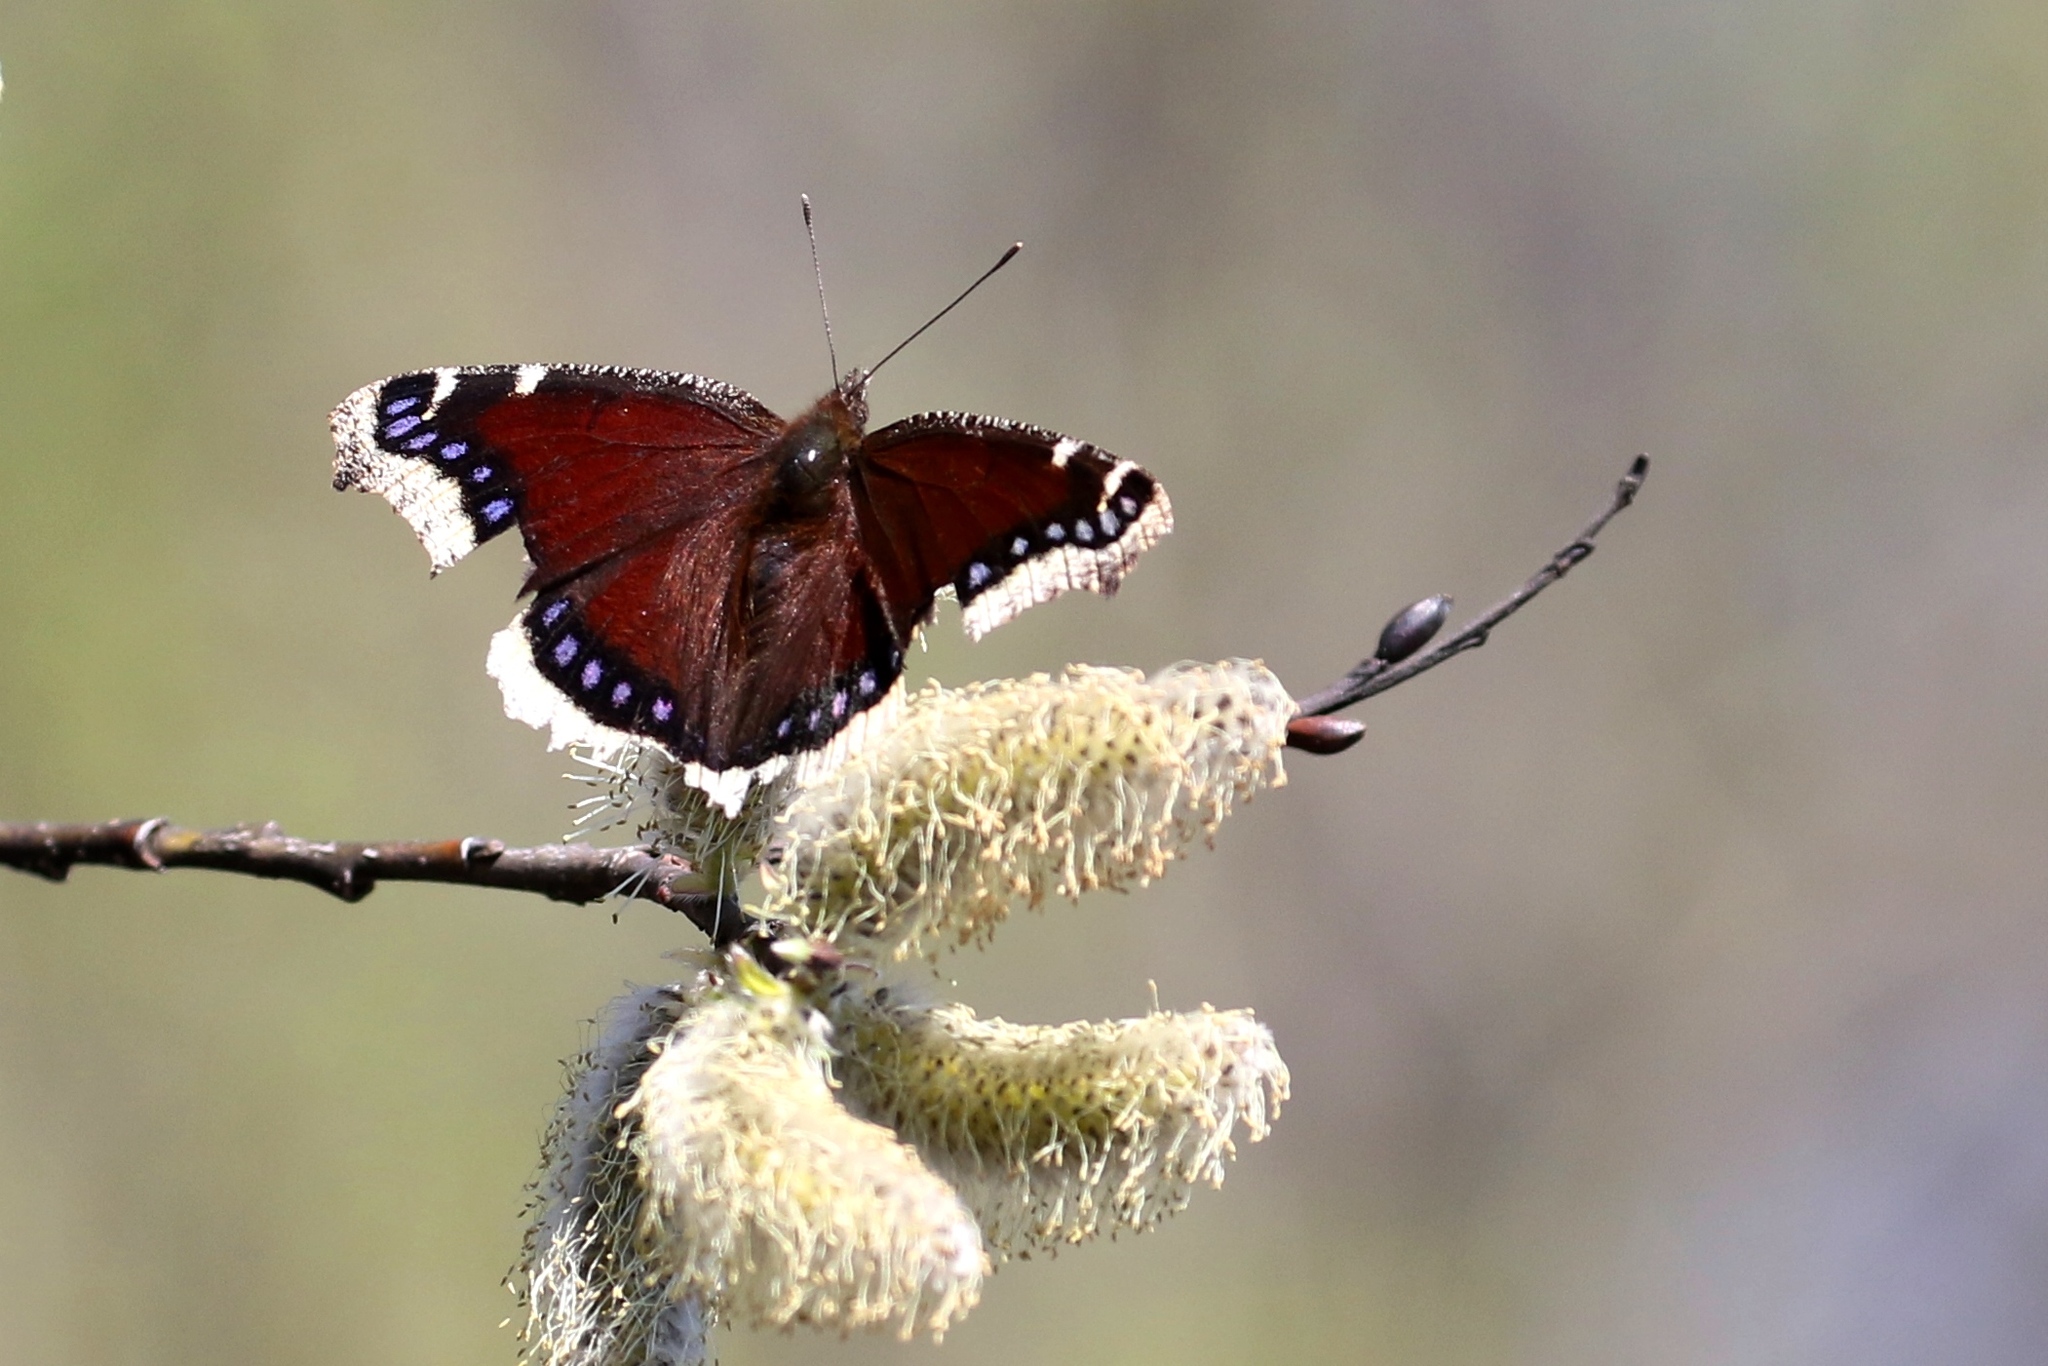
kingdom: Animalia
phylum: Arthropoda
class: Insecta
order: Lepidoptera
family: Nymphalidae
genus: Nymphalis
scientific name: Nymphalis antiopa
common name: Camberwell beauty
